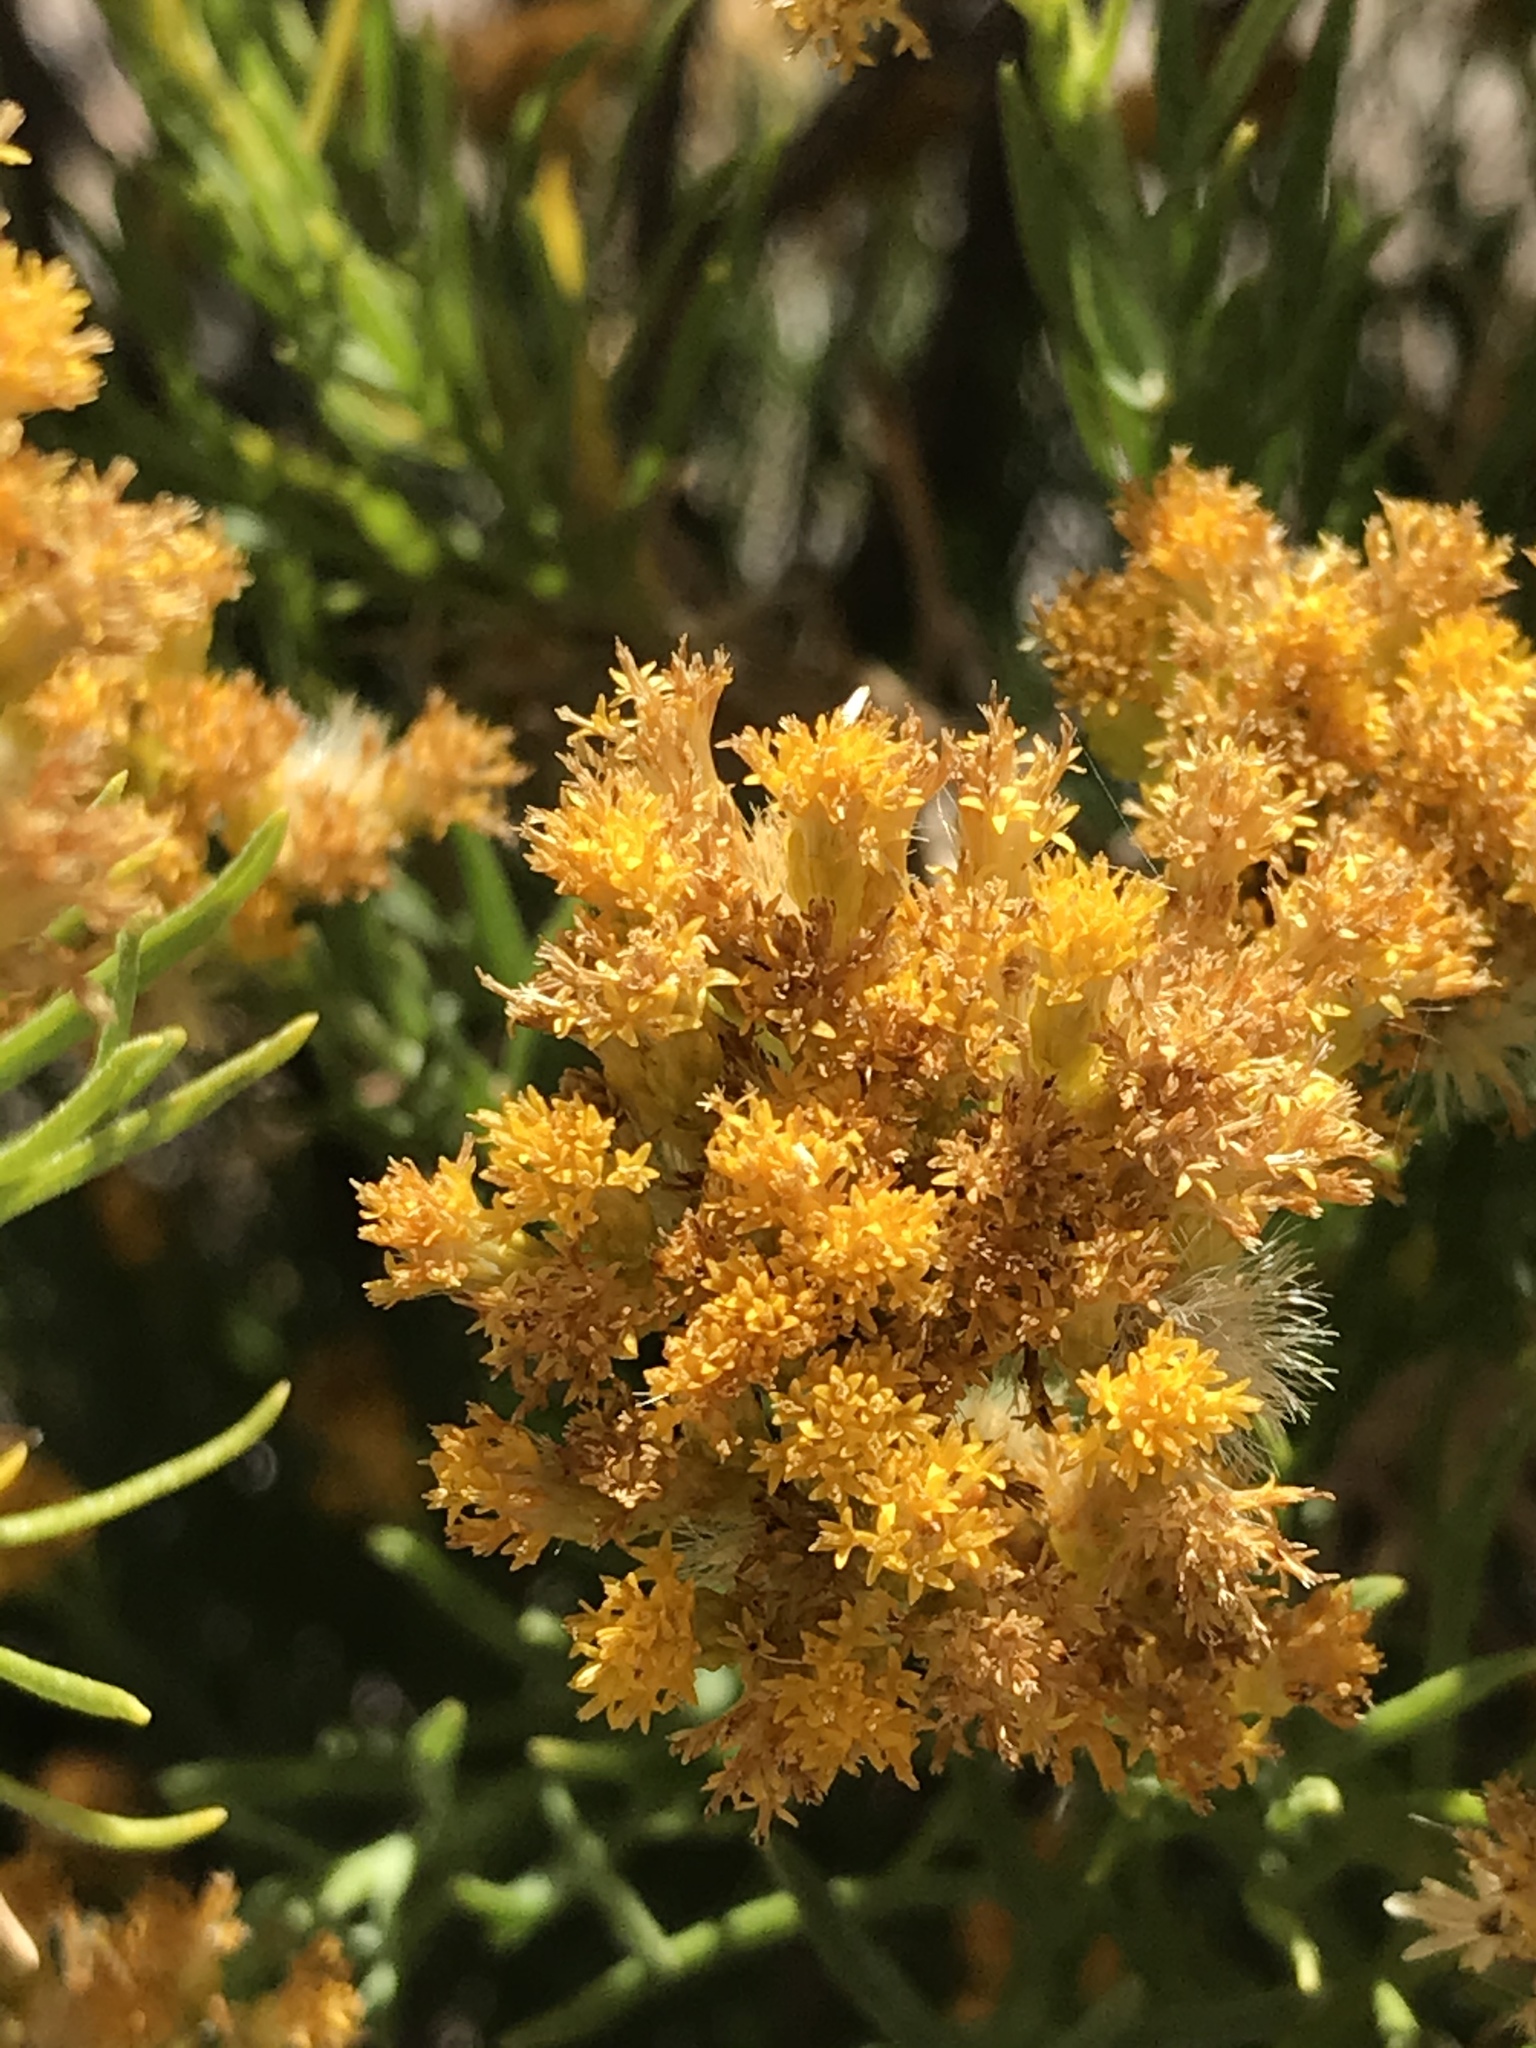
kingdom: Plantae
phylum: Tracheophyta
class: Magnoliopsida
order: Asterales
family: Asteraceae
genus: Ericameria
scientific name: Ericameria parishii
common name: Parish's goldenbush
